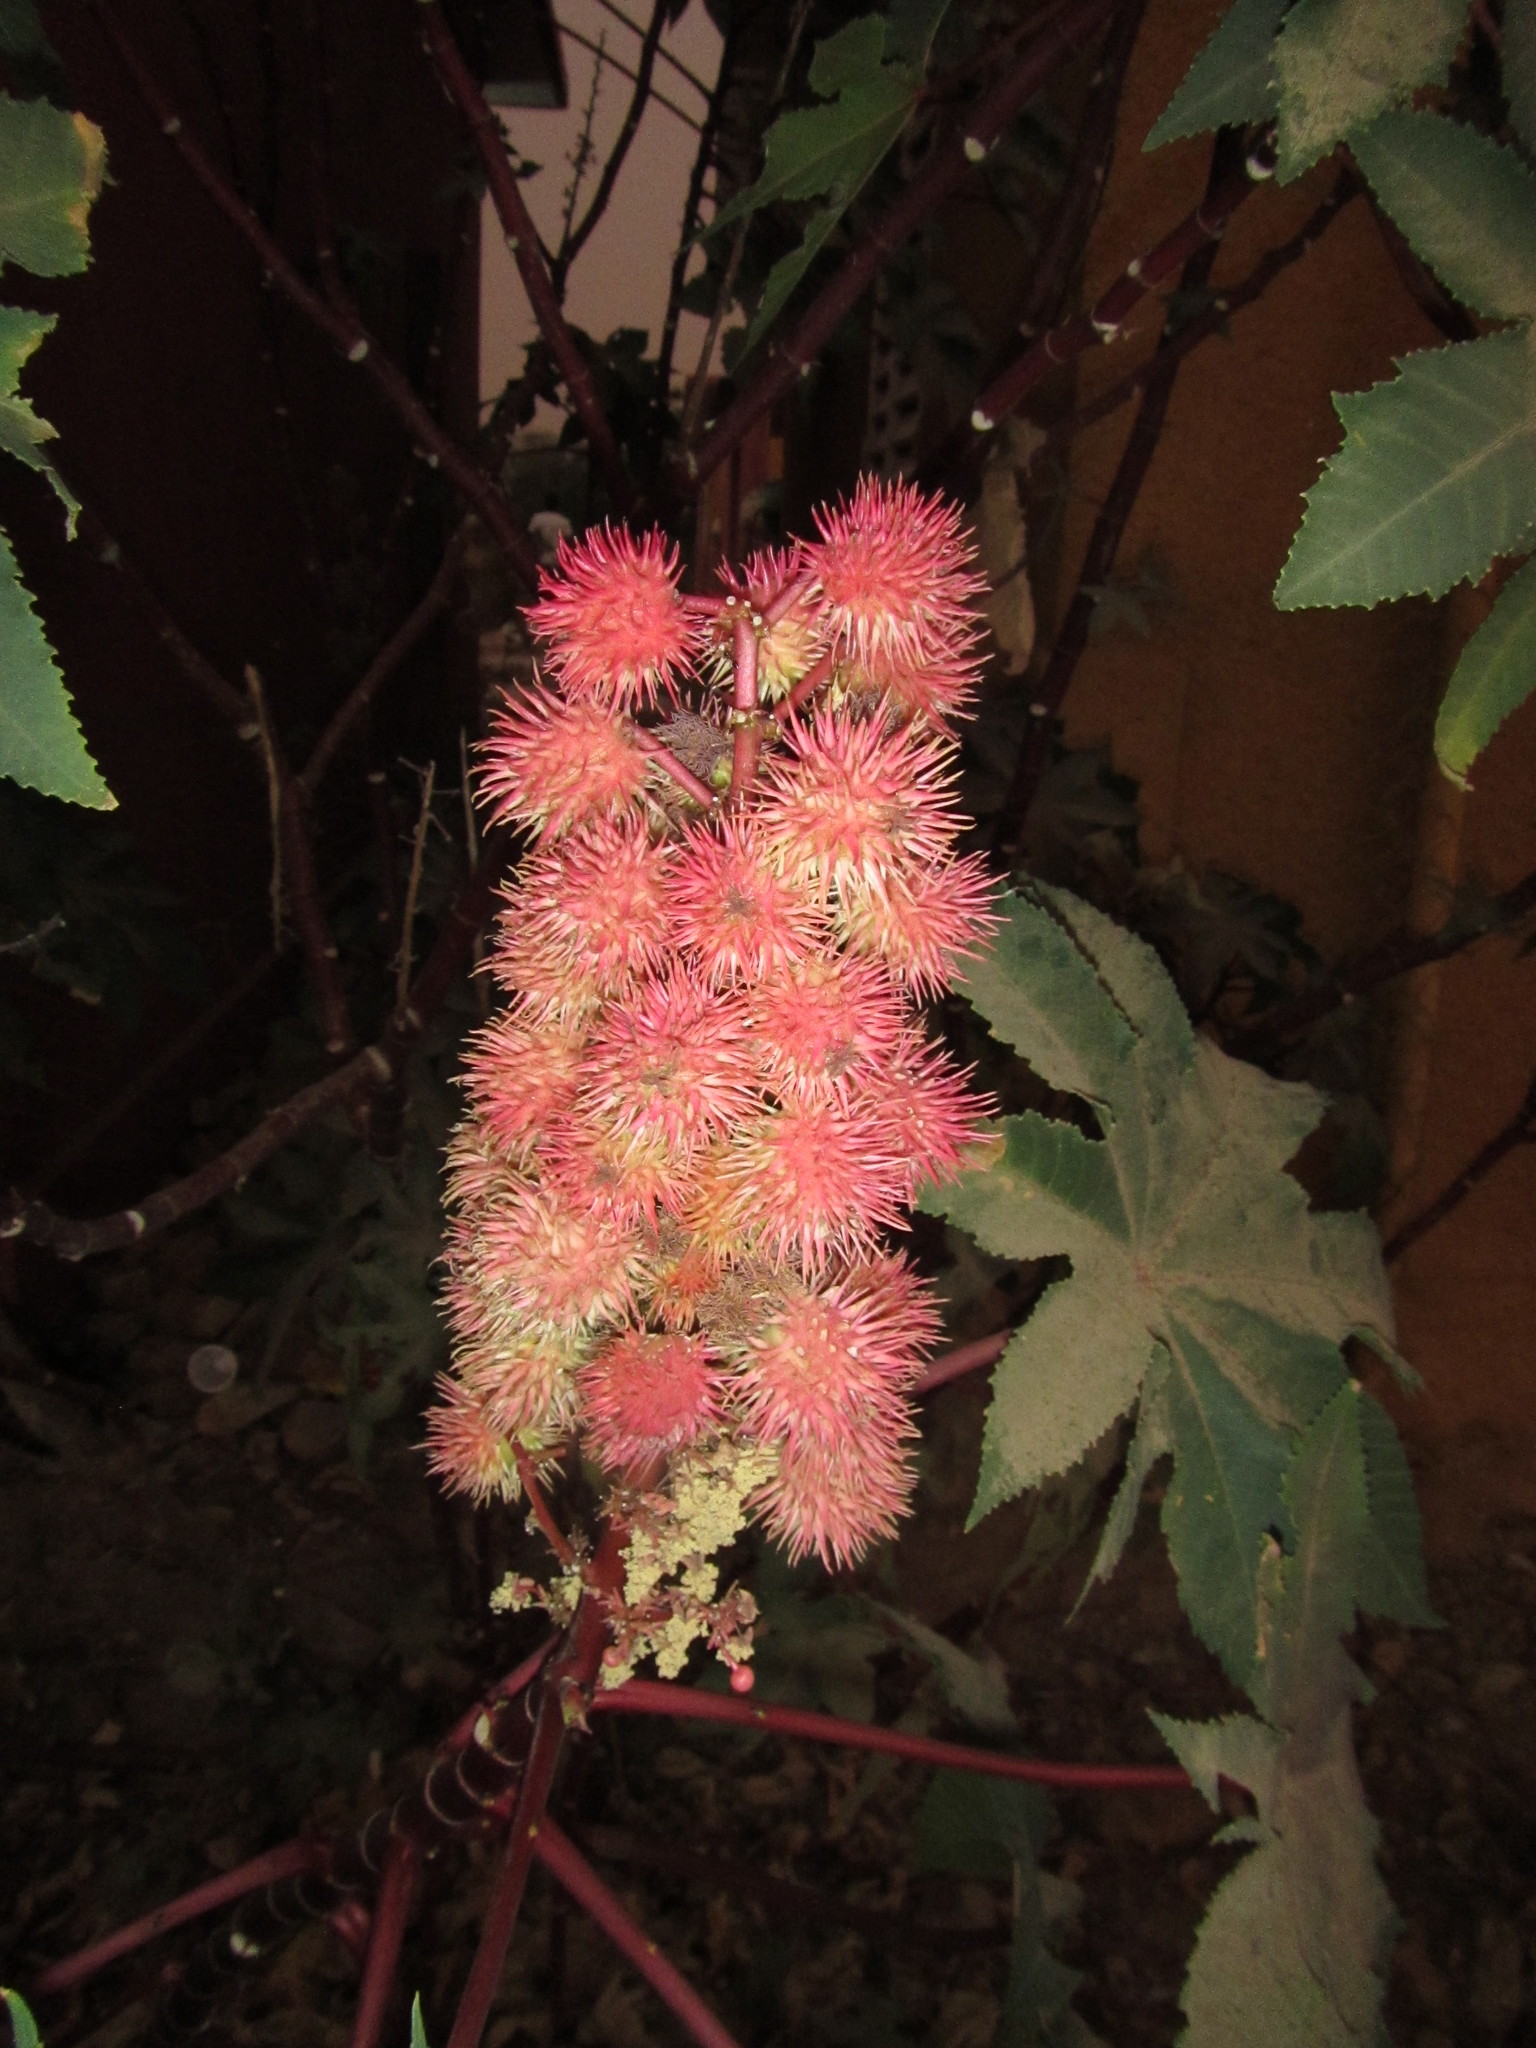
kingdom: Plantae
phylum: Tracheophyta
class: Magnoliopsida
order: Malpighiales
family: Euphorbiaceae
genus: Ricinus
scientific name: Ricinus communis
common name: Castor-oil-plant
